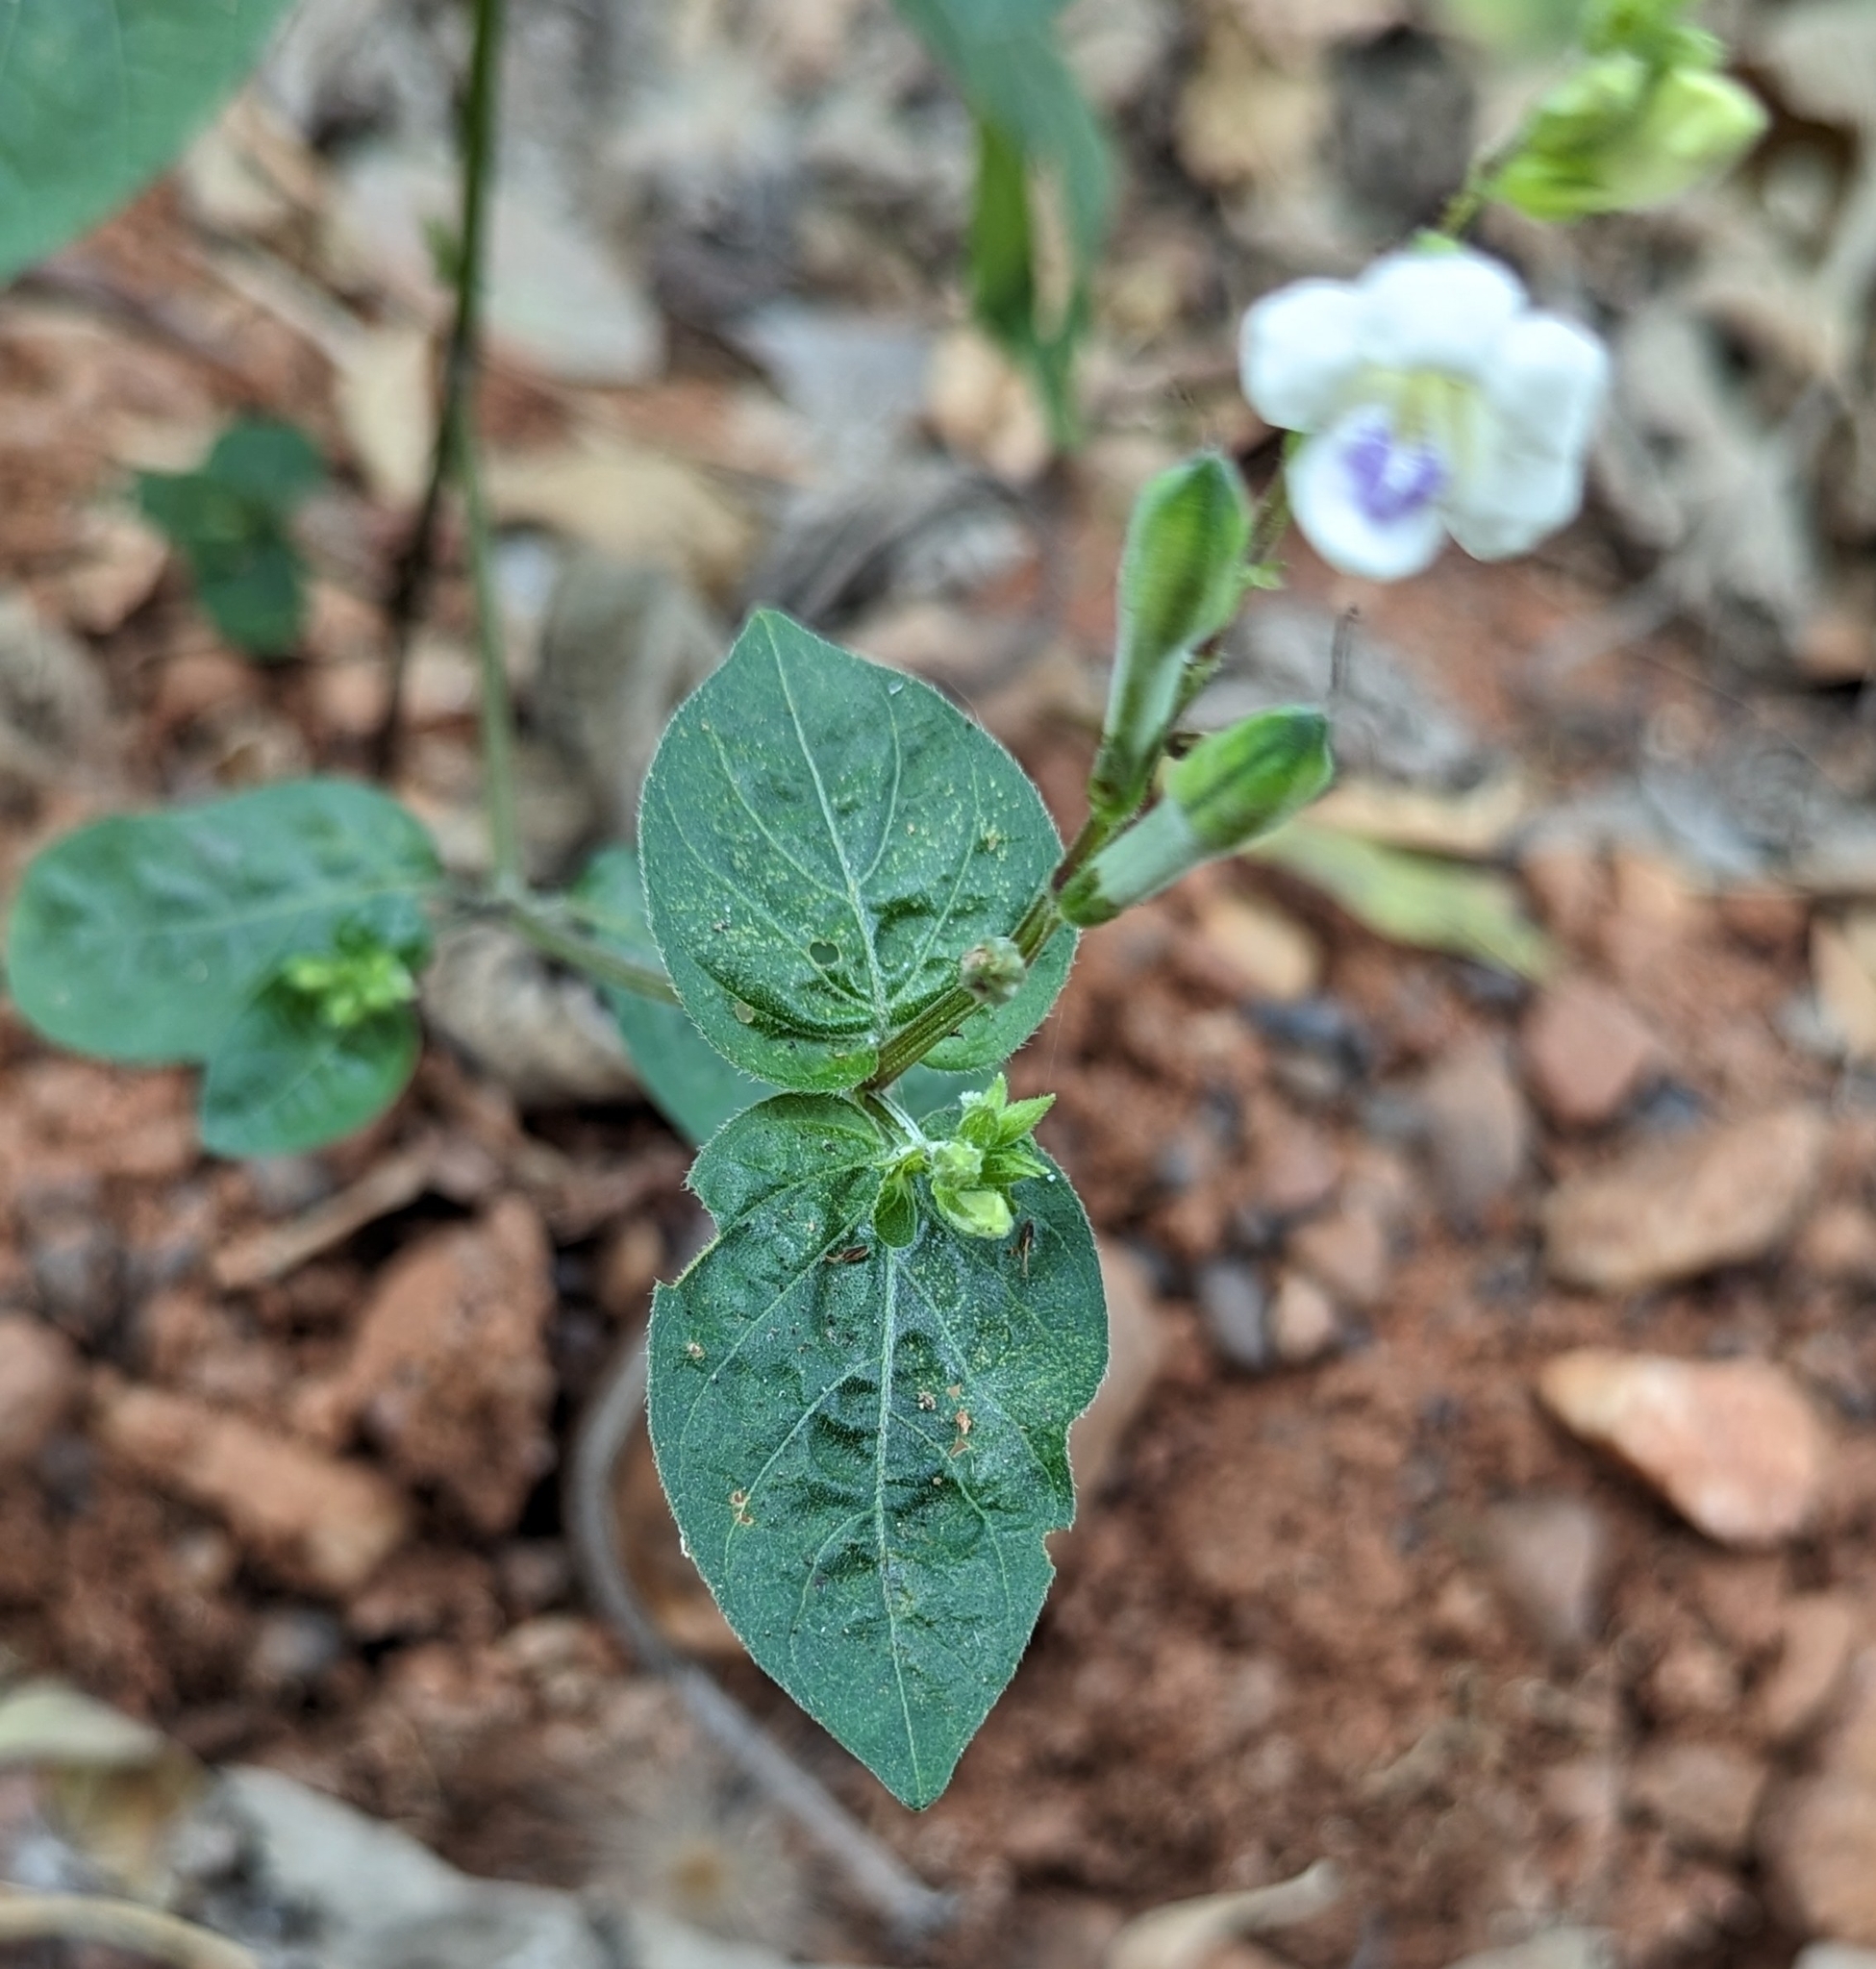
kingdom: Plantae
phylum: Tracheophyta
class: Magnoliopsida
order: Lamiales
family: Acanthaceae
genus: Asystasia
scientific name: Asystasia intrusa
